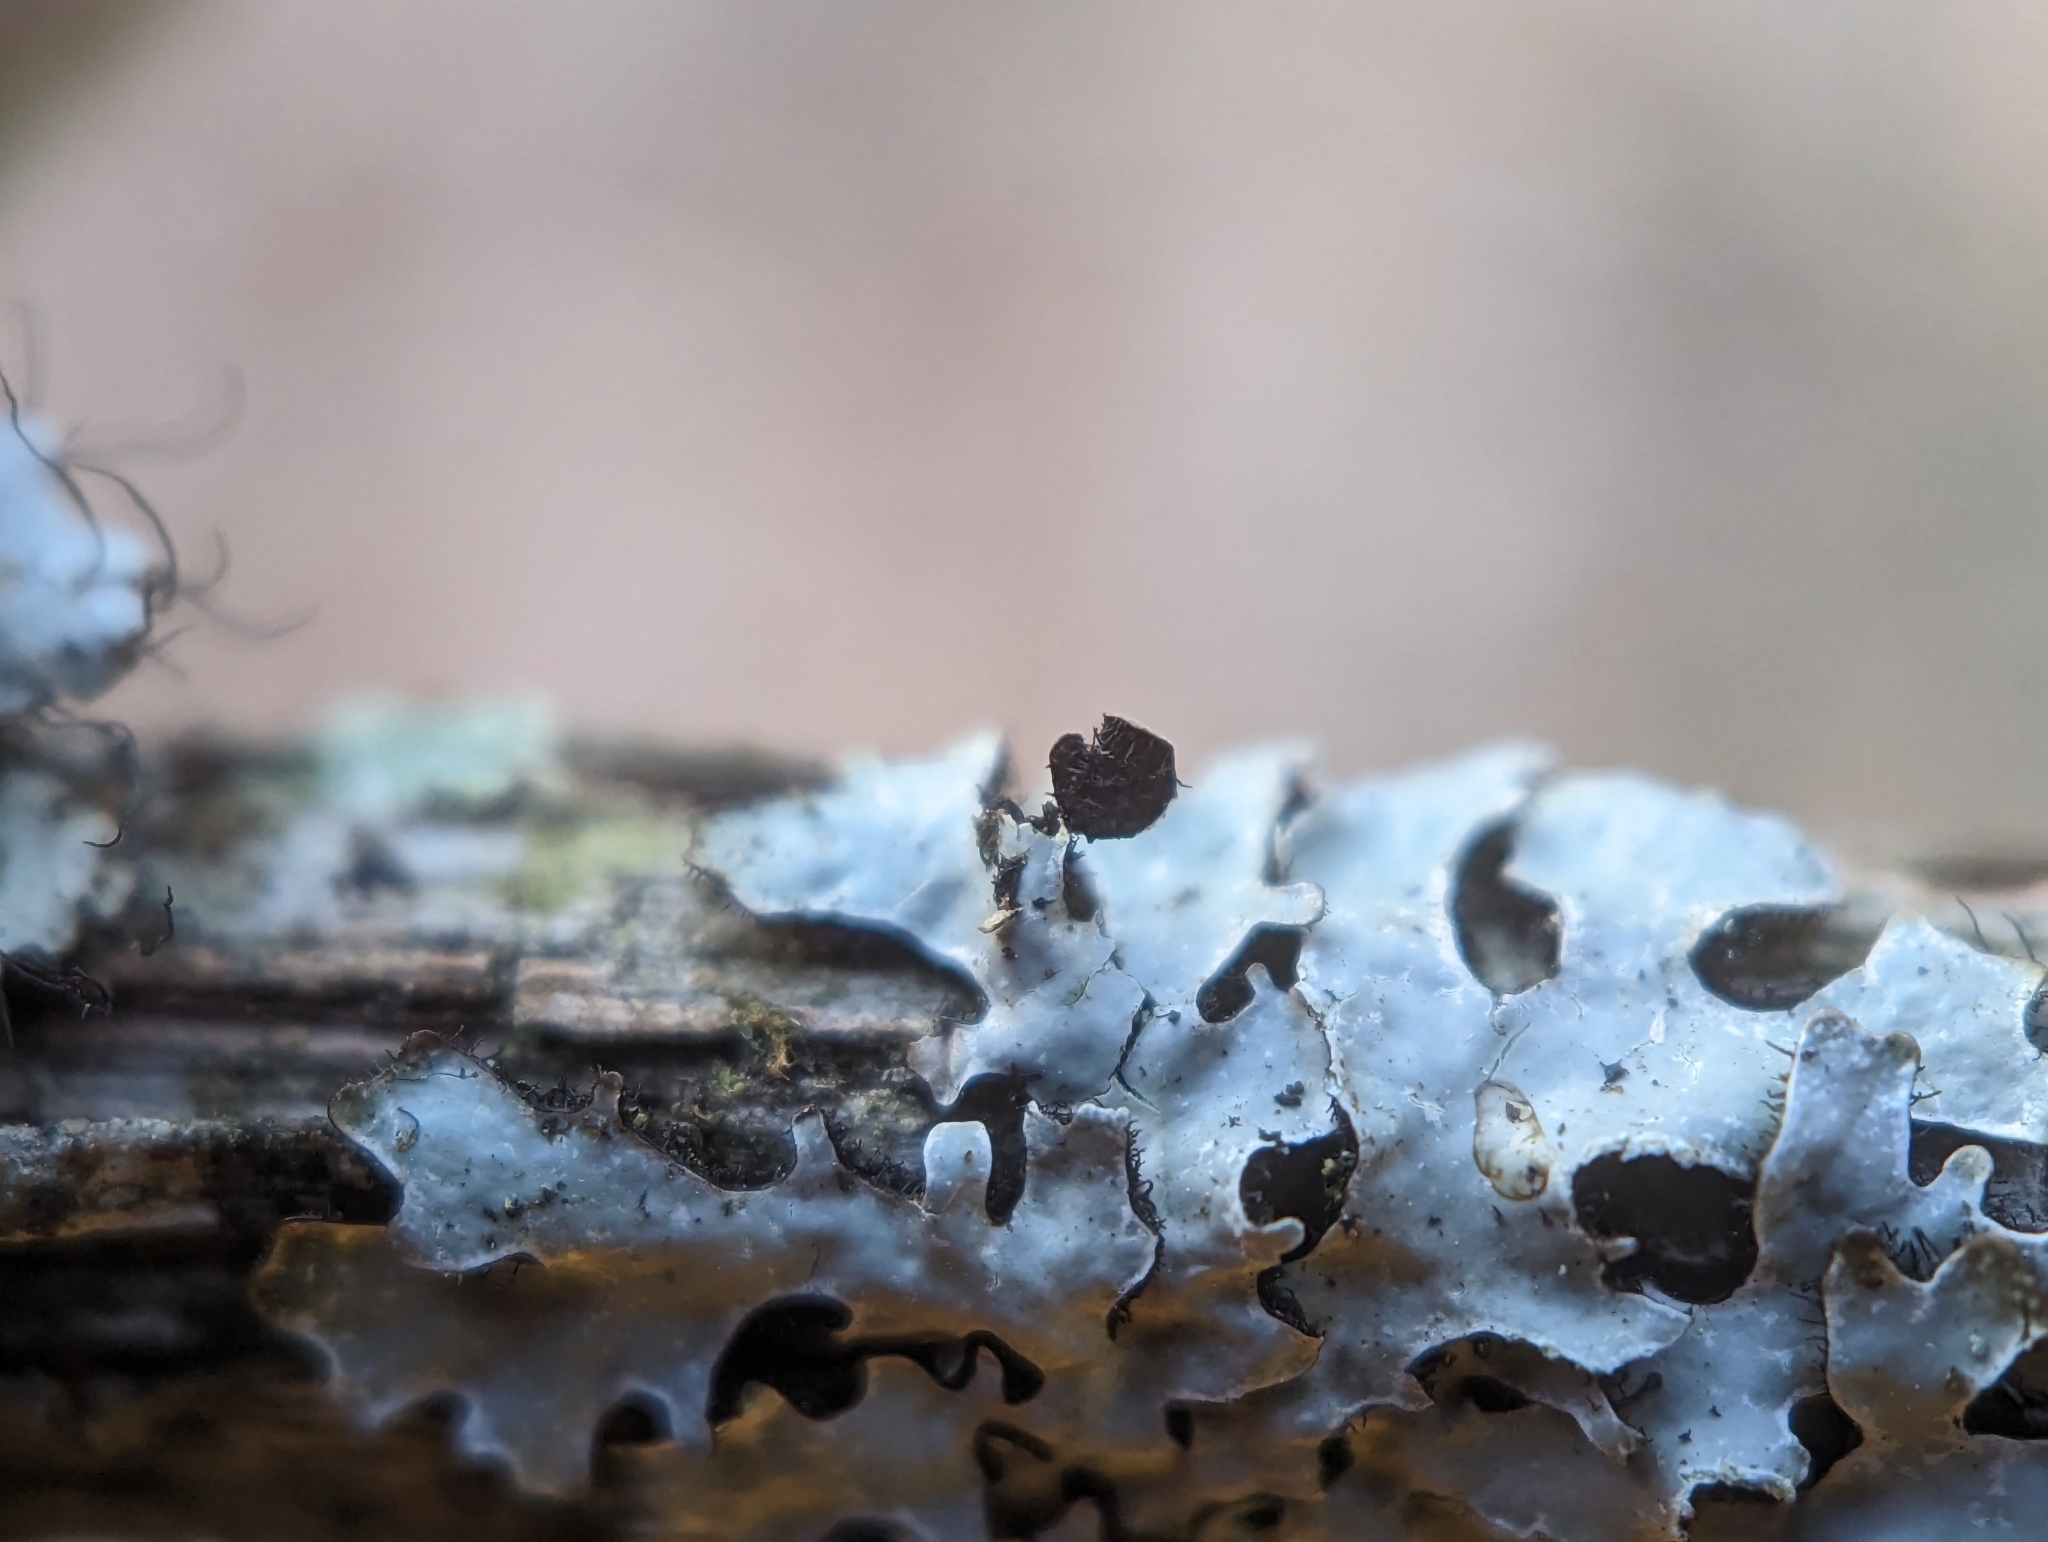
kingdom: Fungi
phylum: Ascomycota
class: Lecanoromycetes
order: Lecanorales
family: Parmeliaceae
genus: Parmelia
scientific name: Parmelia sulcata
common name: Netted shield lichen
